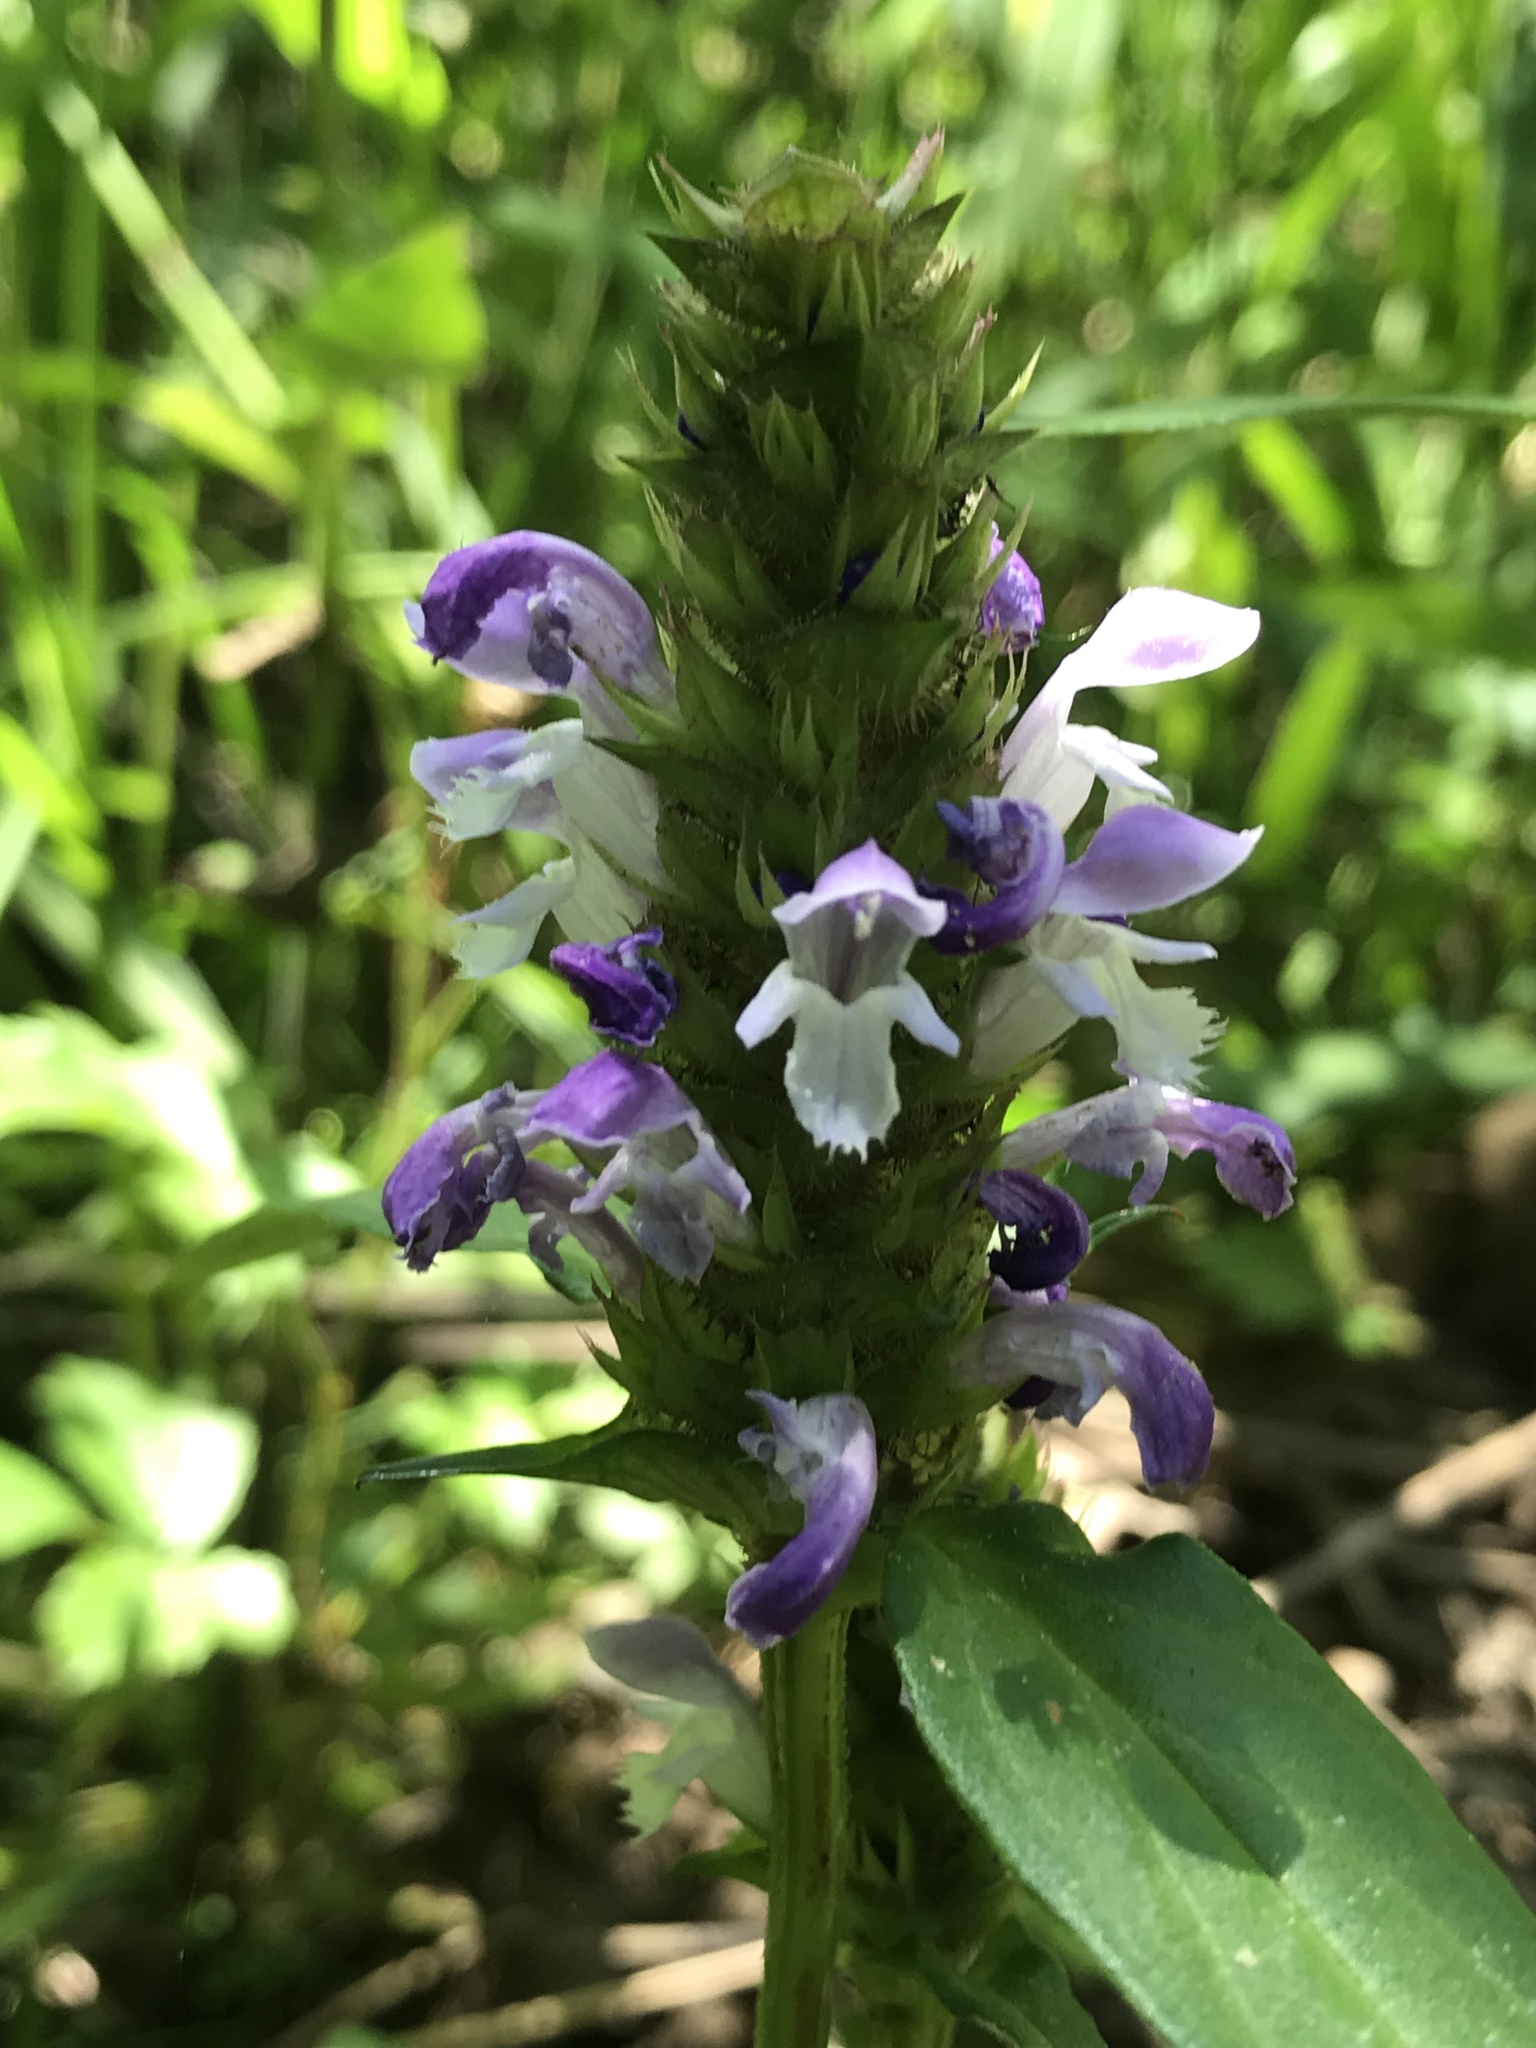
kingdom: Plantae
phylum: Tracheophyta
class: Magnoliopsida
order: Lamiales
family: Lamiaceae
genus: Prunella
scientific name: Prunella vulgaris
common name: Heal-all
